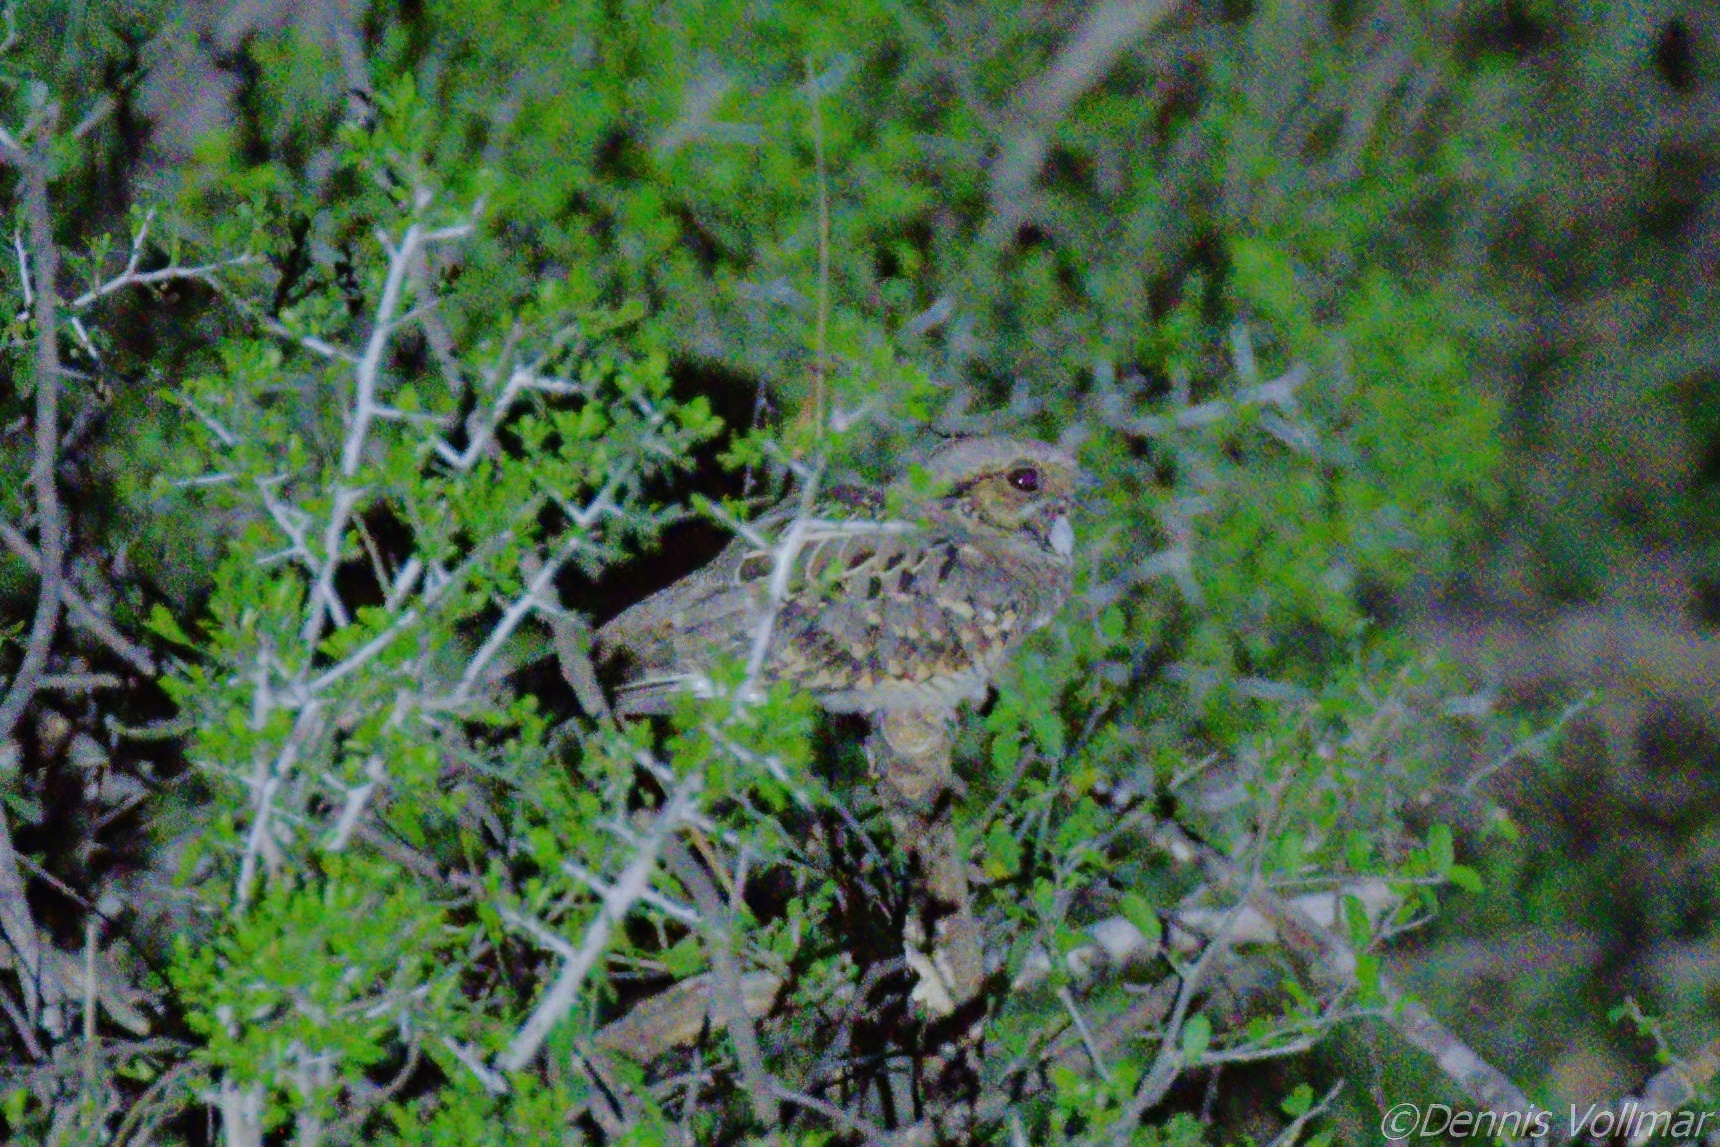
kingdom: Animalia
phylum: Chordata
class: Aves
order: Caprimulgiformes
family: Caprimulgidae
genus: Nyctidromus
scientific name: Nyctidromus albicollis
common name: Pauraque
